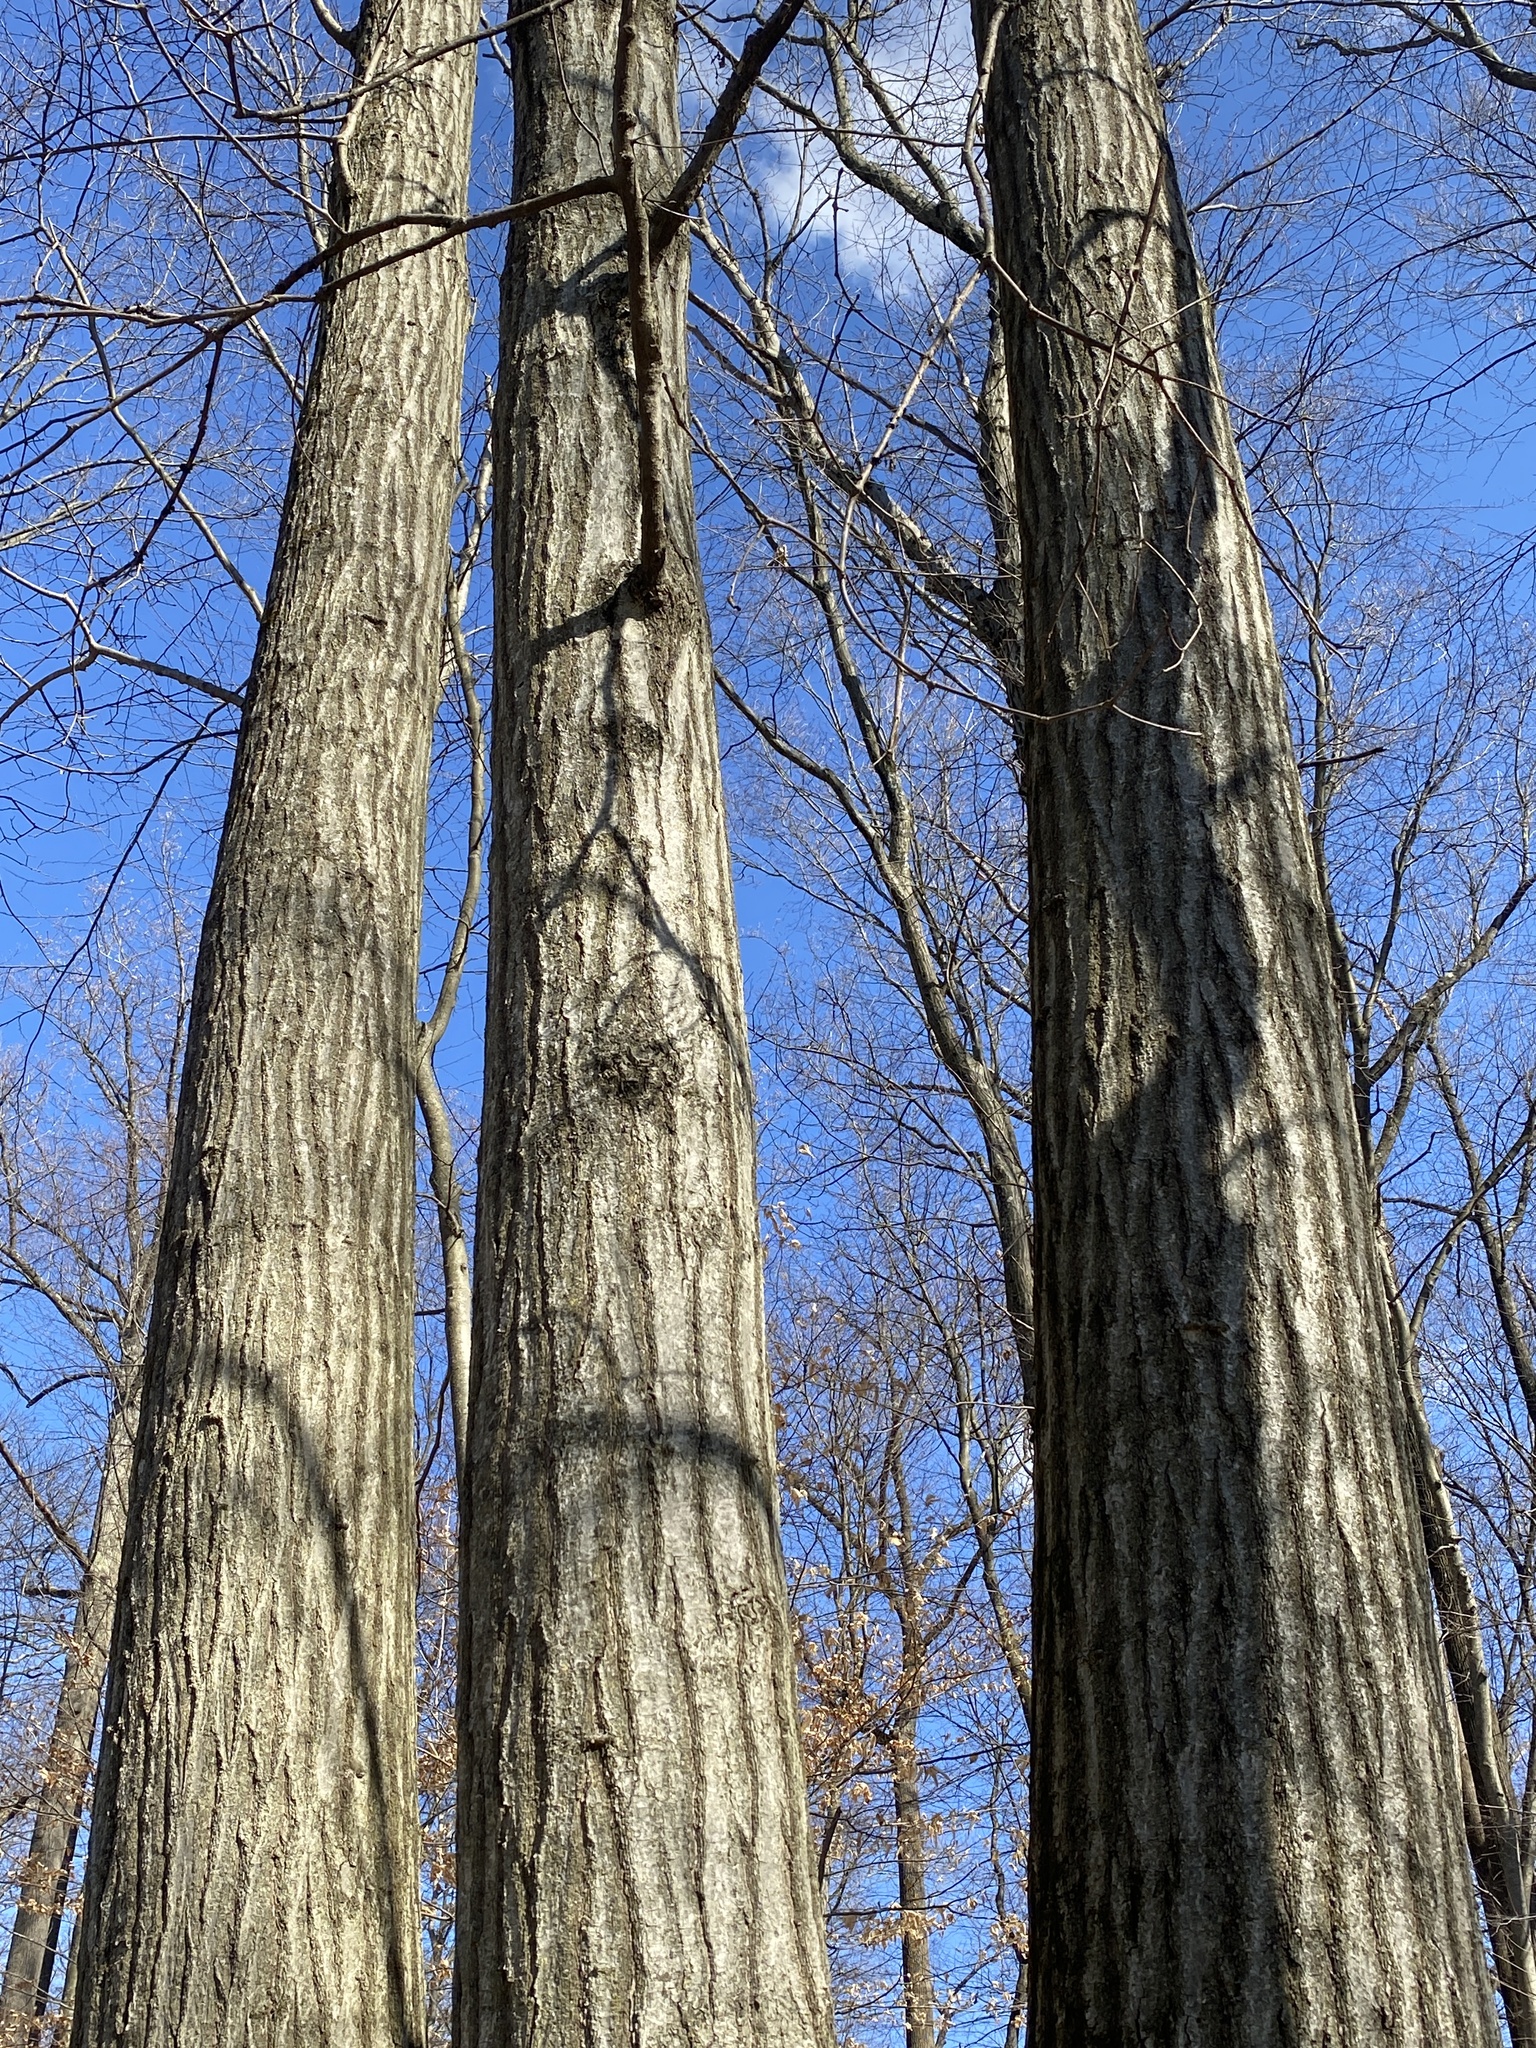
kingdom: Plantae
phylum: Tracheophyta
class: Magnoliopsida
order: Fagales
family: Fagaceae
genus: Quercus
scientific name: Quercus rubra
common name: Red oak
